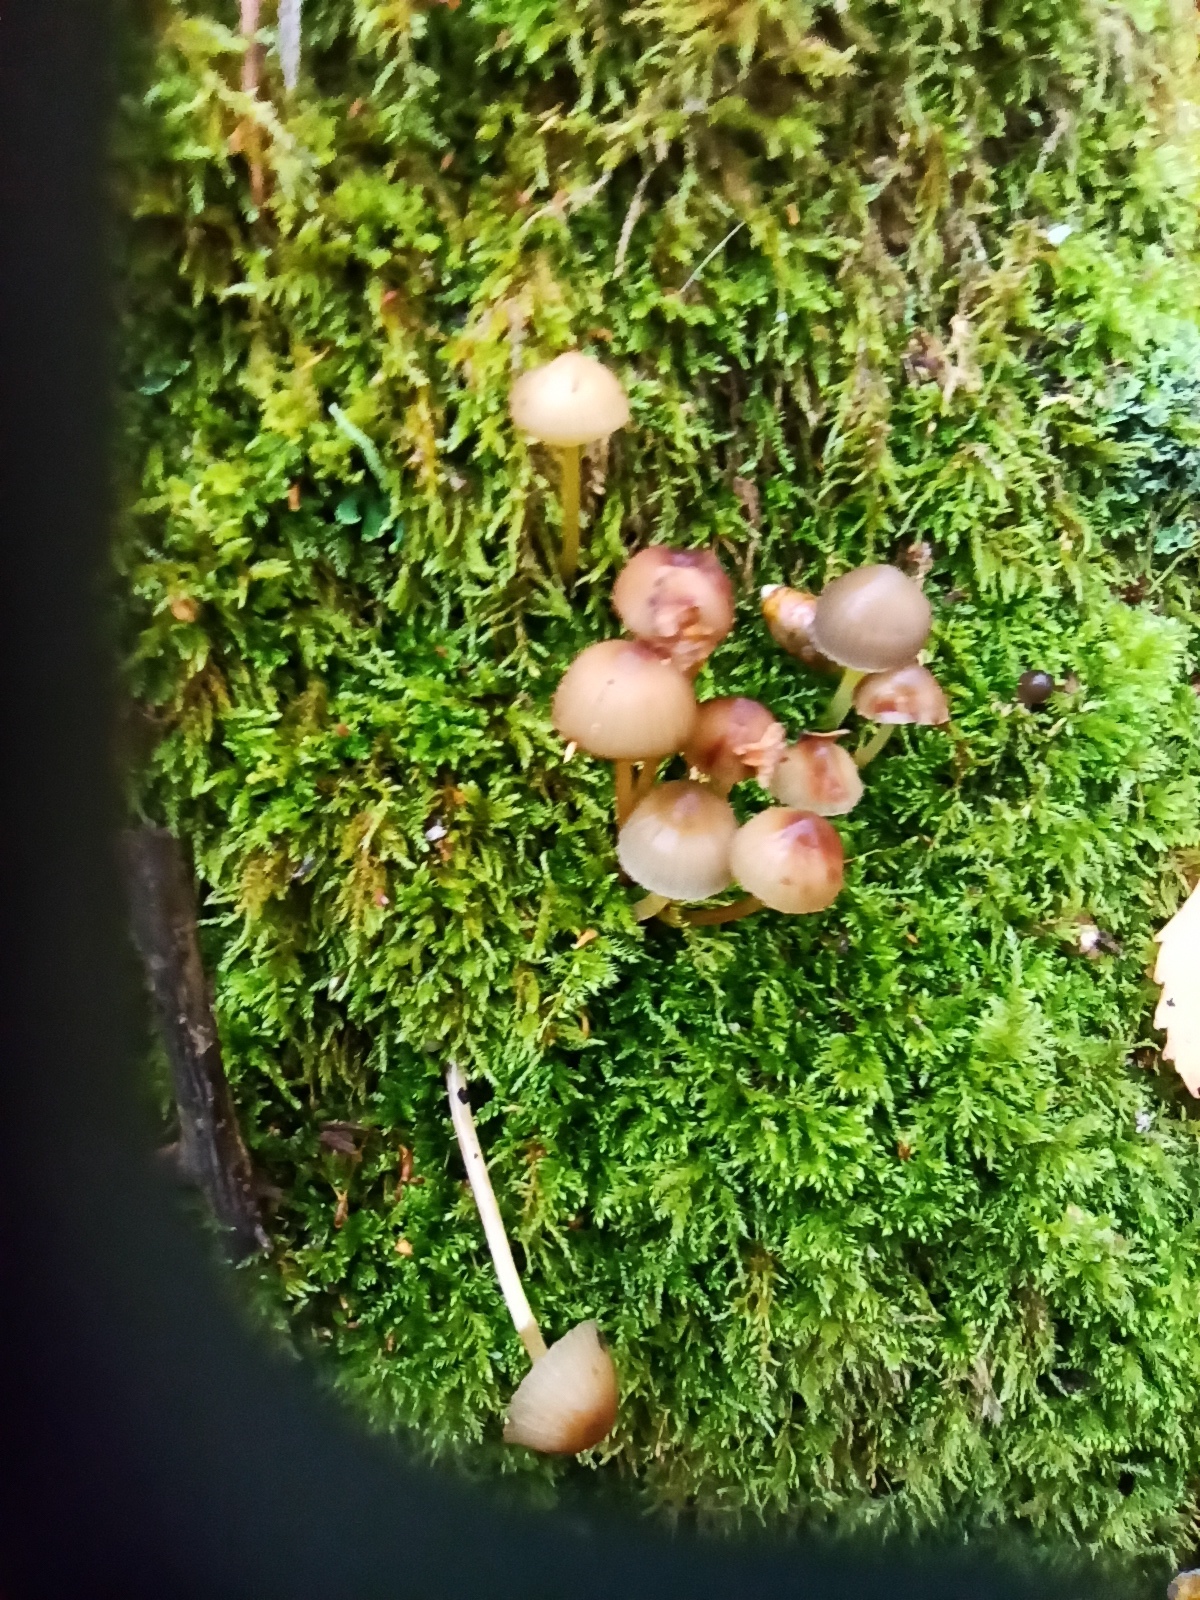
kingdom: Fungi
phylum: Basidiomycota
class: Agaricomycetes
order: Agaricales
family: Mycenaceae
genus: Mycena
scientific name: Mycena epipterygia
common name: Yellowleg bonnet
